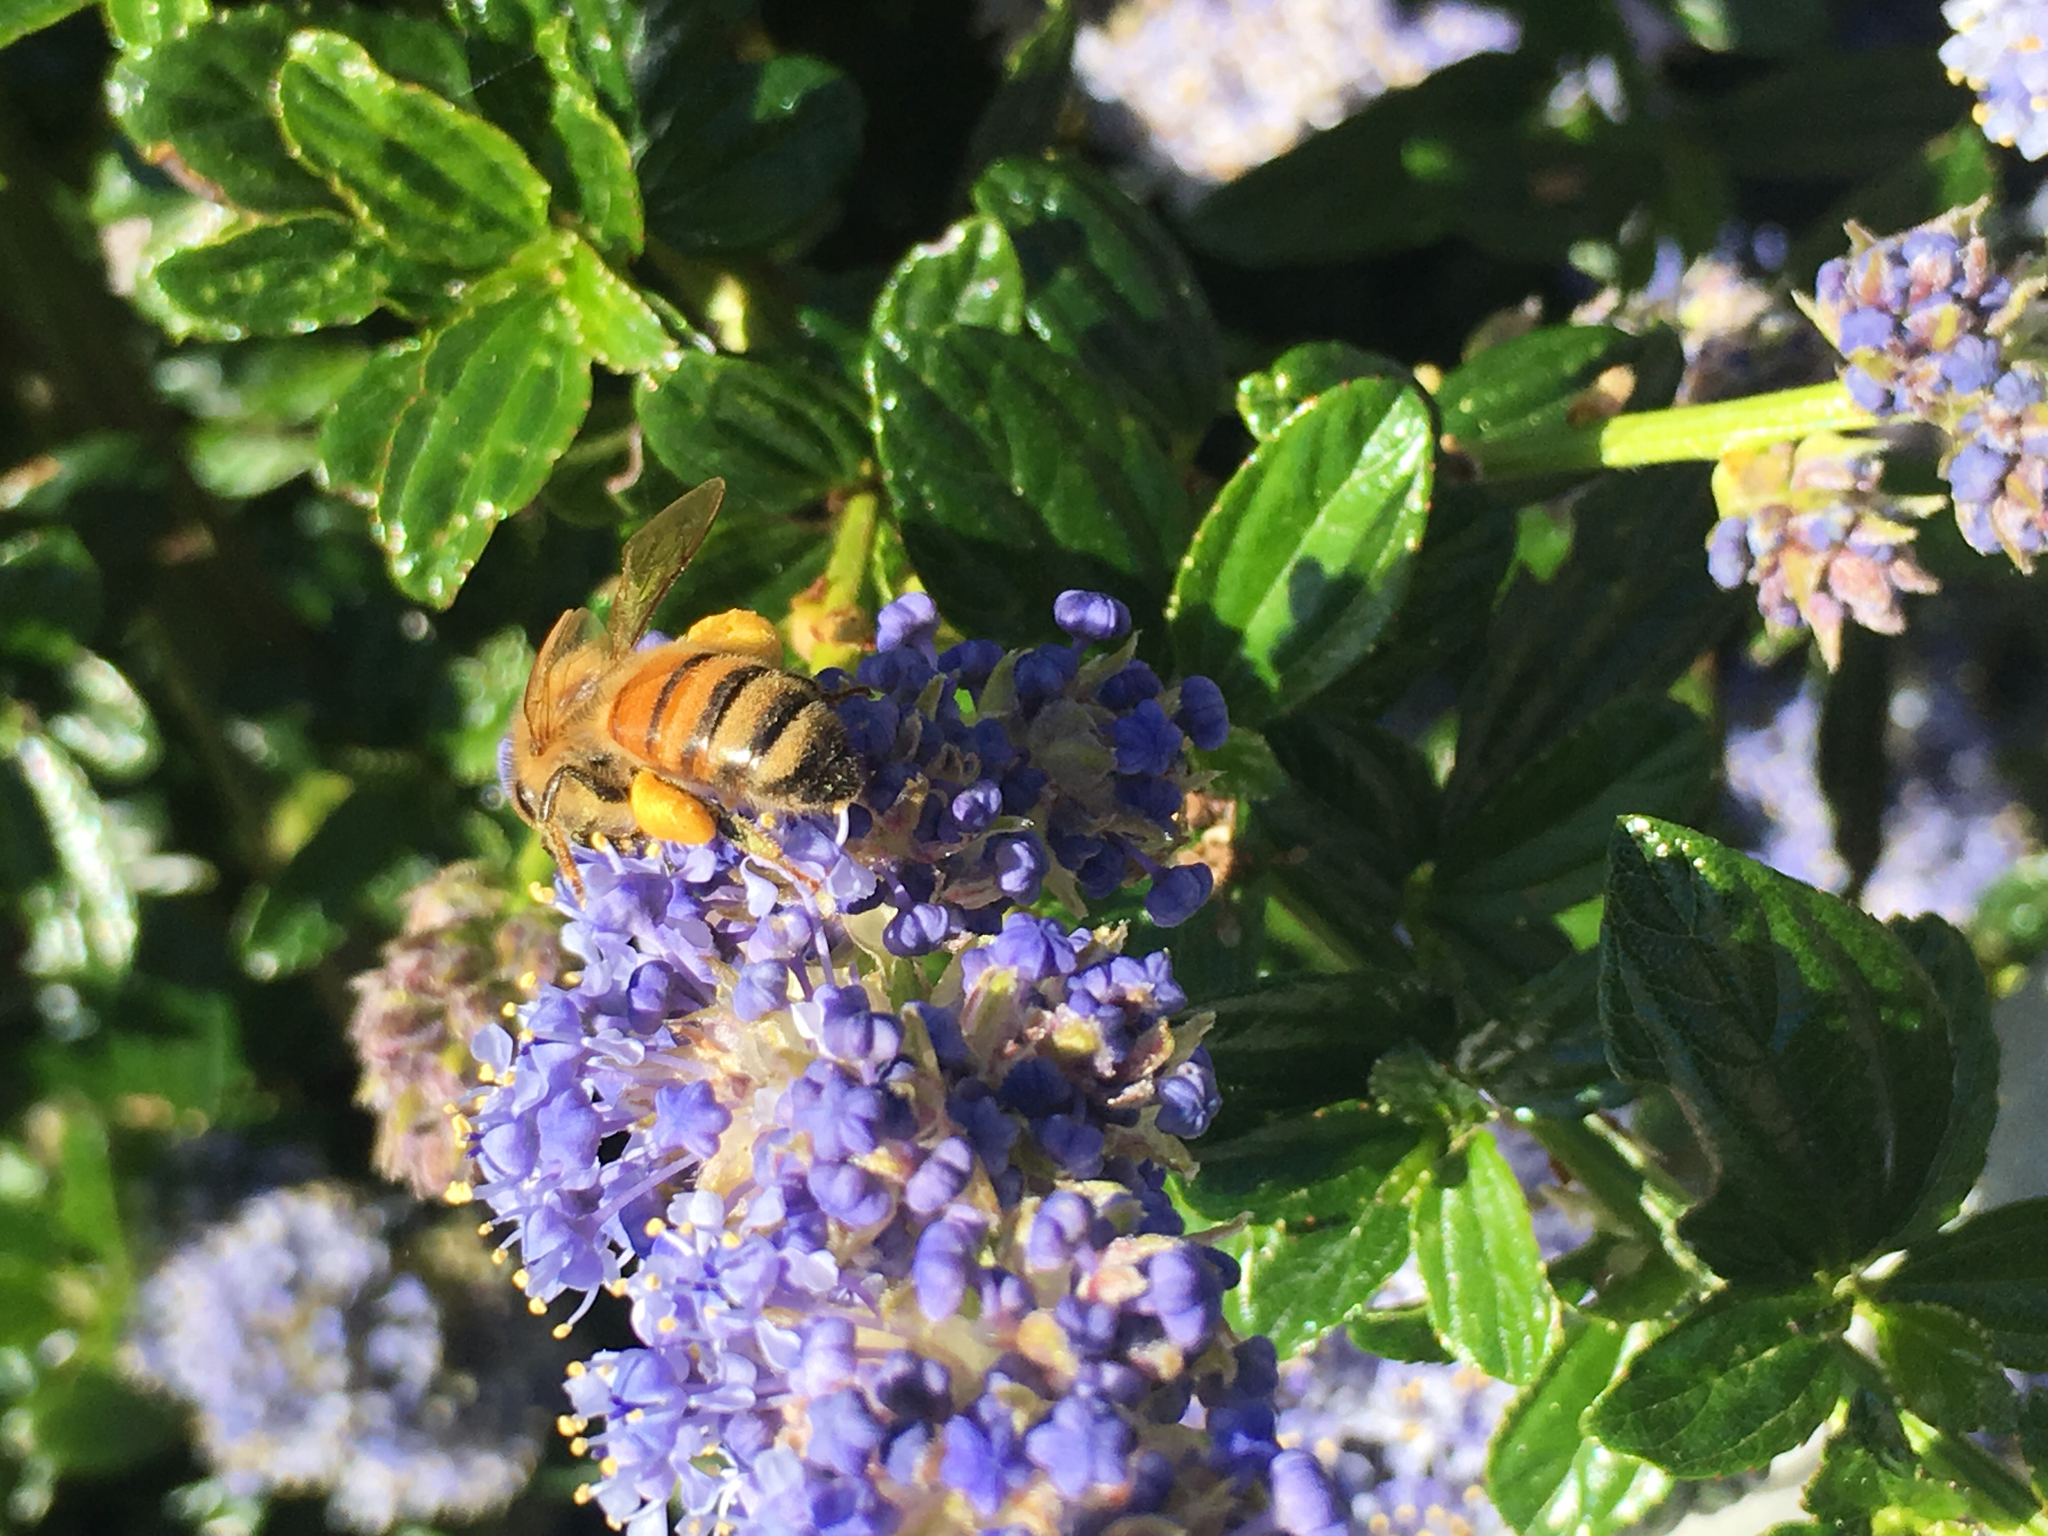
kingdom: Animalia
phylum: Arthropoda
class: Insecta
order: Hymenoptera
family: Apidae
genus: Apis
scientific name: Apis mellifera
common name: Honey bee
